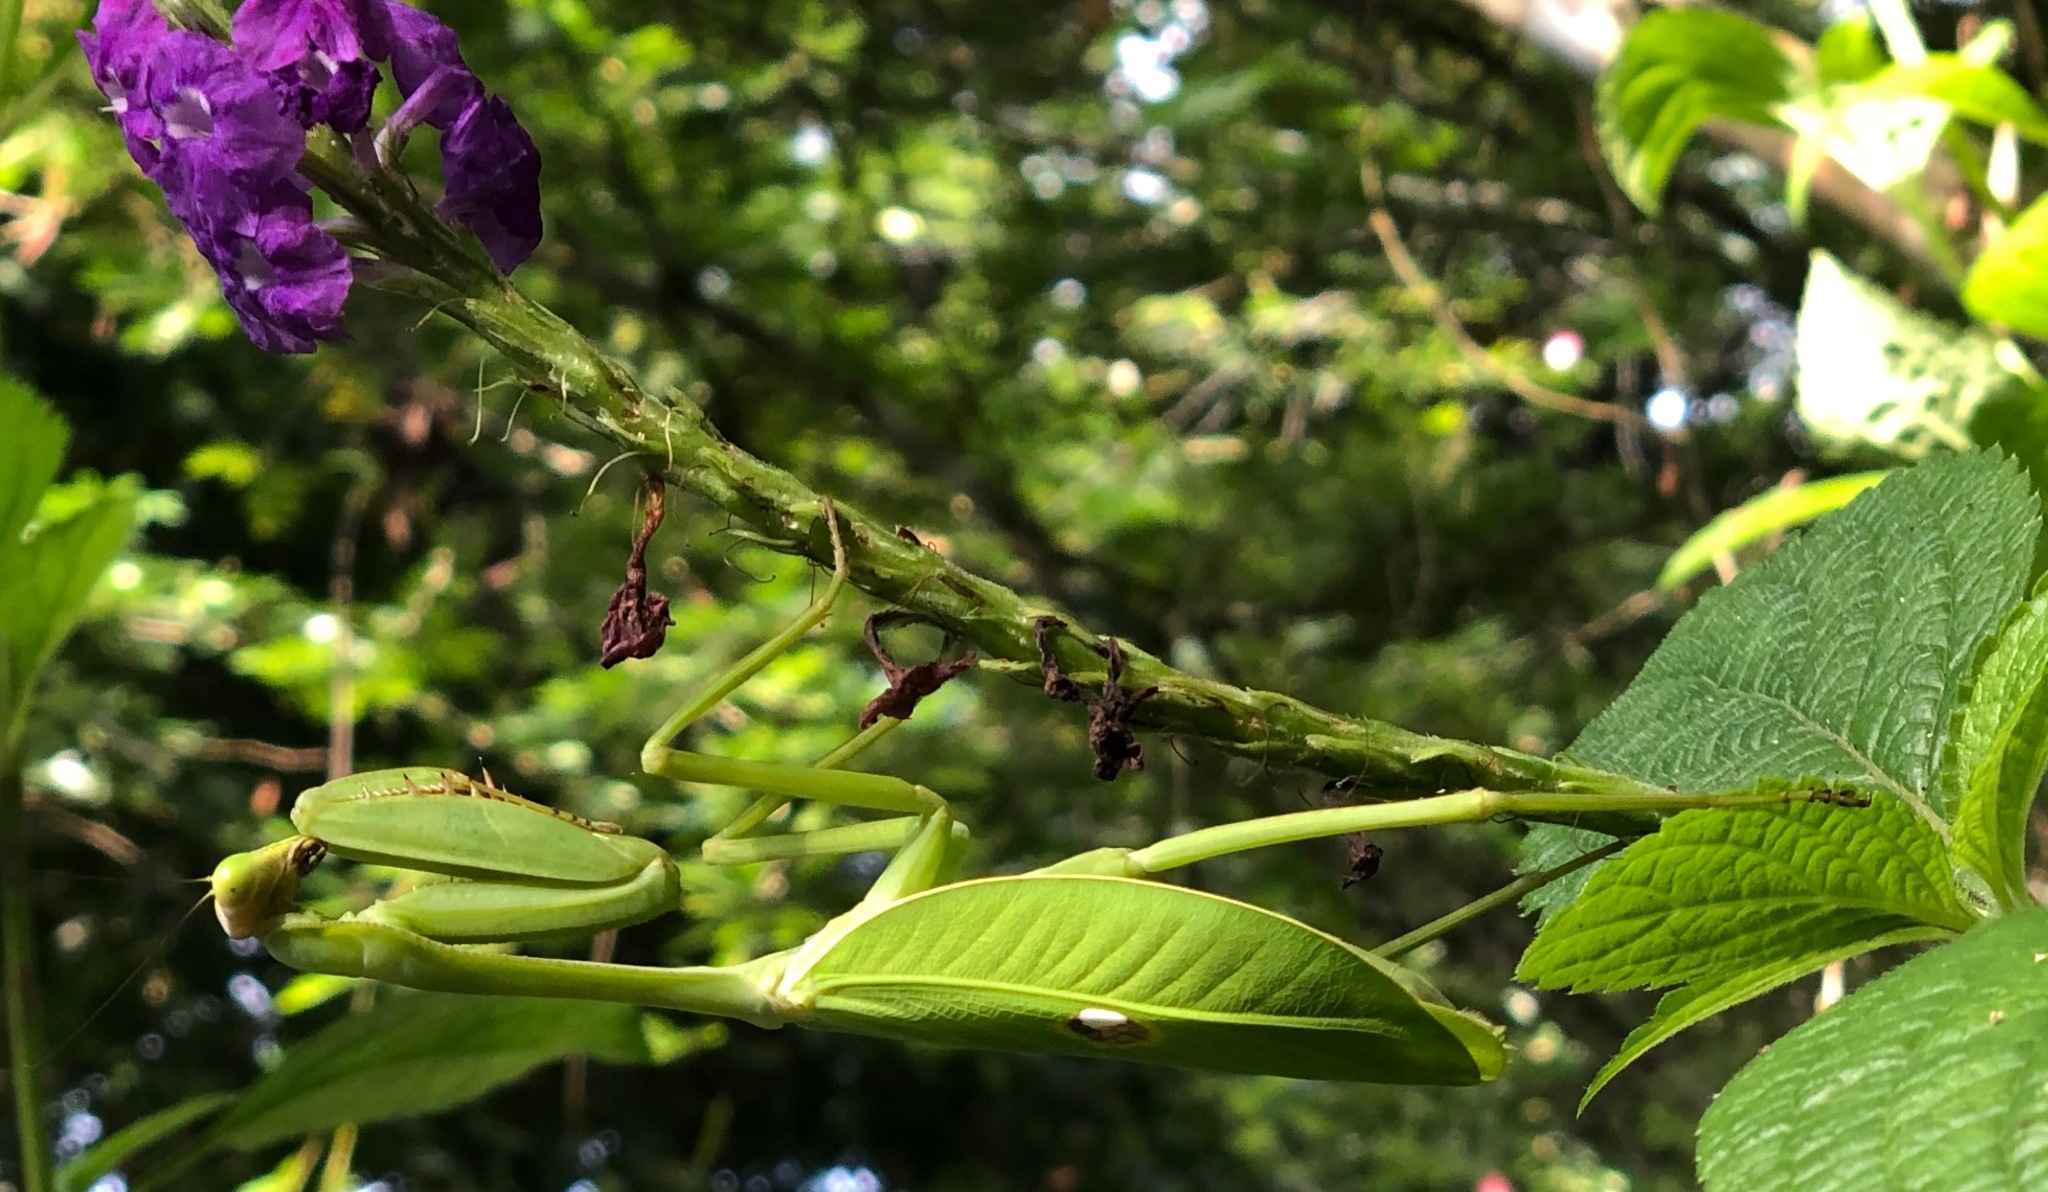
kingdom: Animalia
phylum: Arthropoda
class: Insecta
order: Mantodea
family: Mantidae
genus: Stagmatoptera
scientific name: Stagmatoptera septentrionalis
